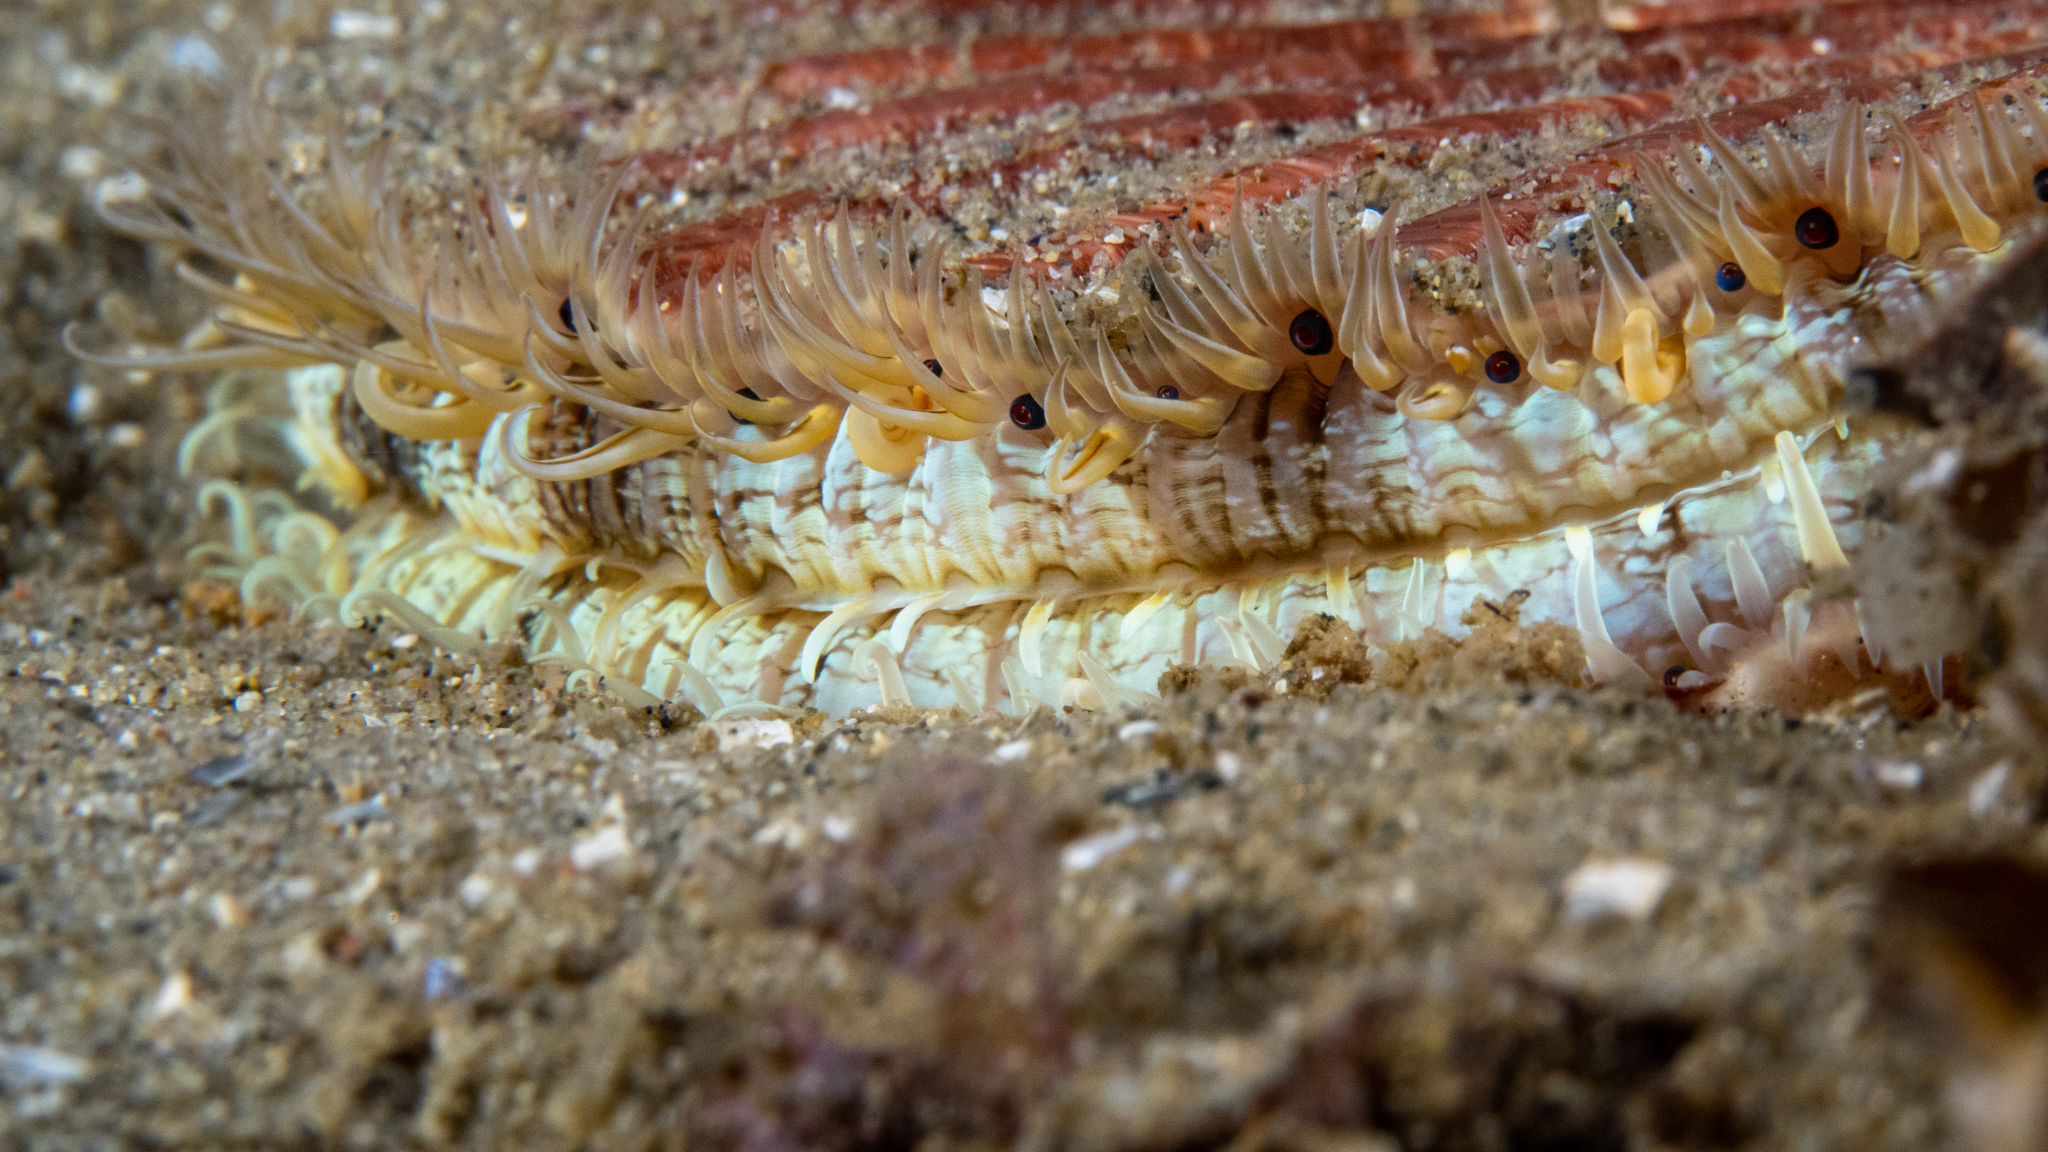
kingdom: Animalia
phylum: Mollusca
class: Bivalvia
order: Pectinida
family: Pectinidae
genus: Pecten
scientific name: Pecten fumatus
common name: Australian scallop
